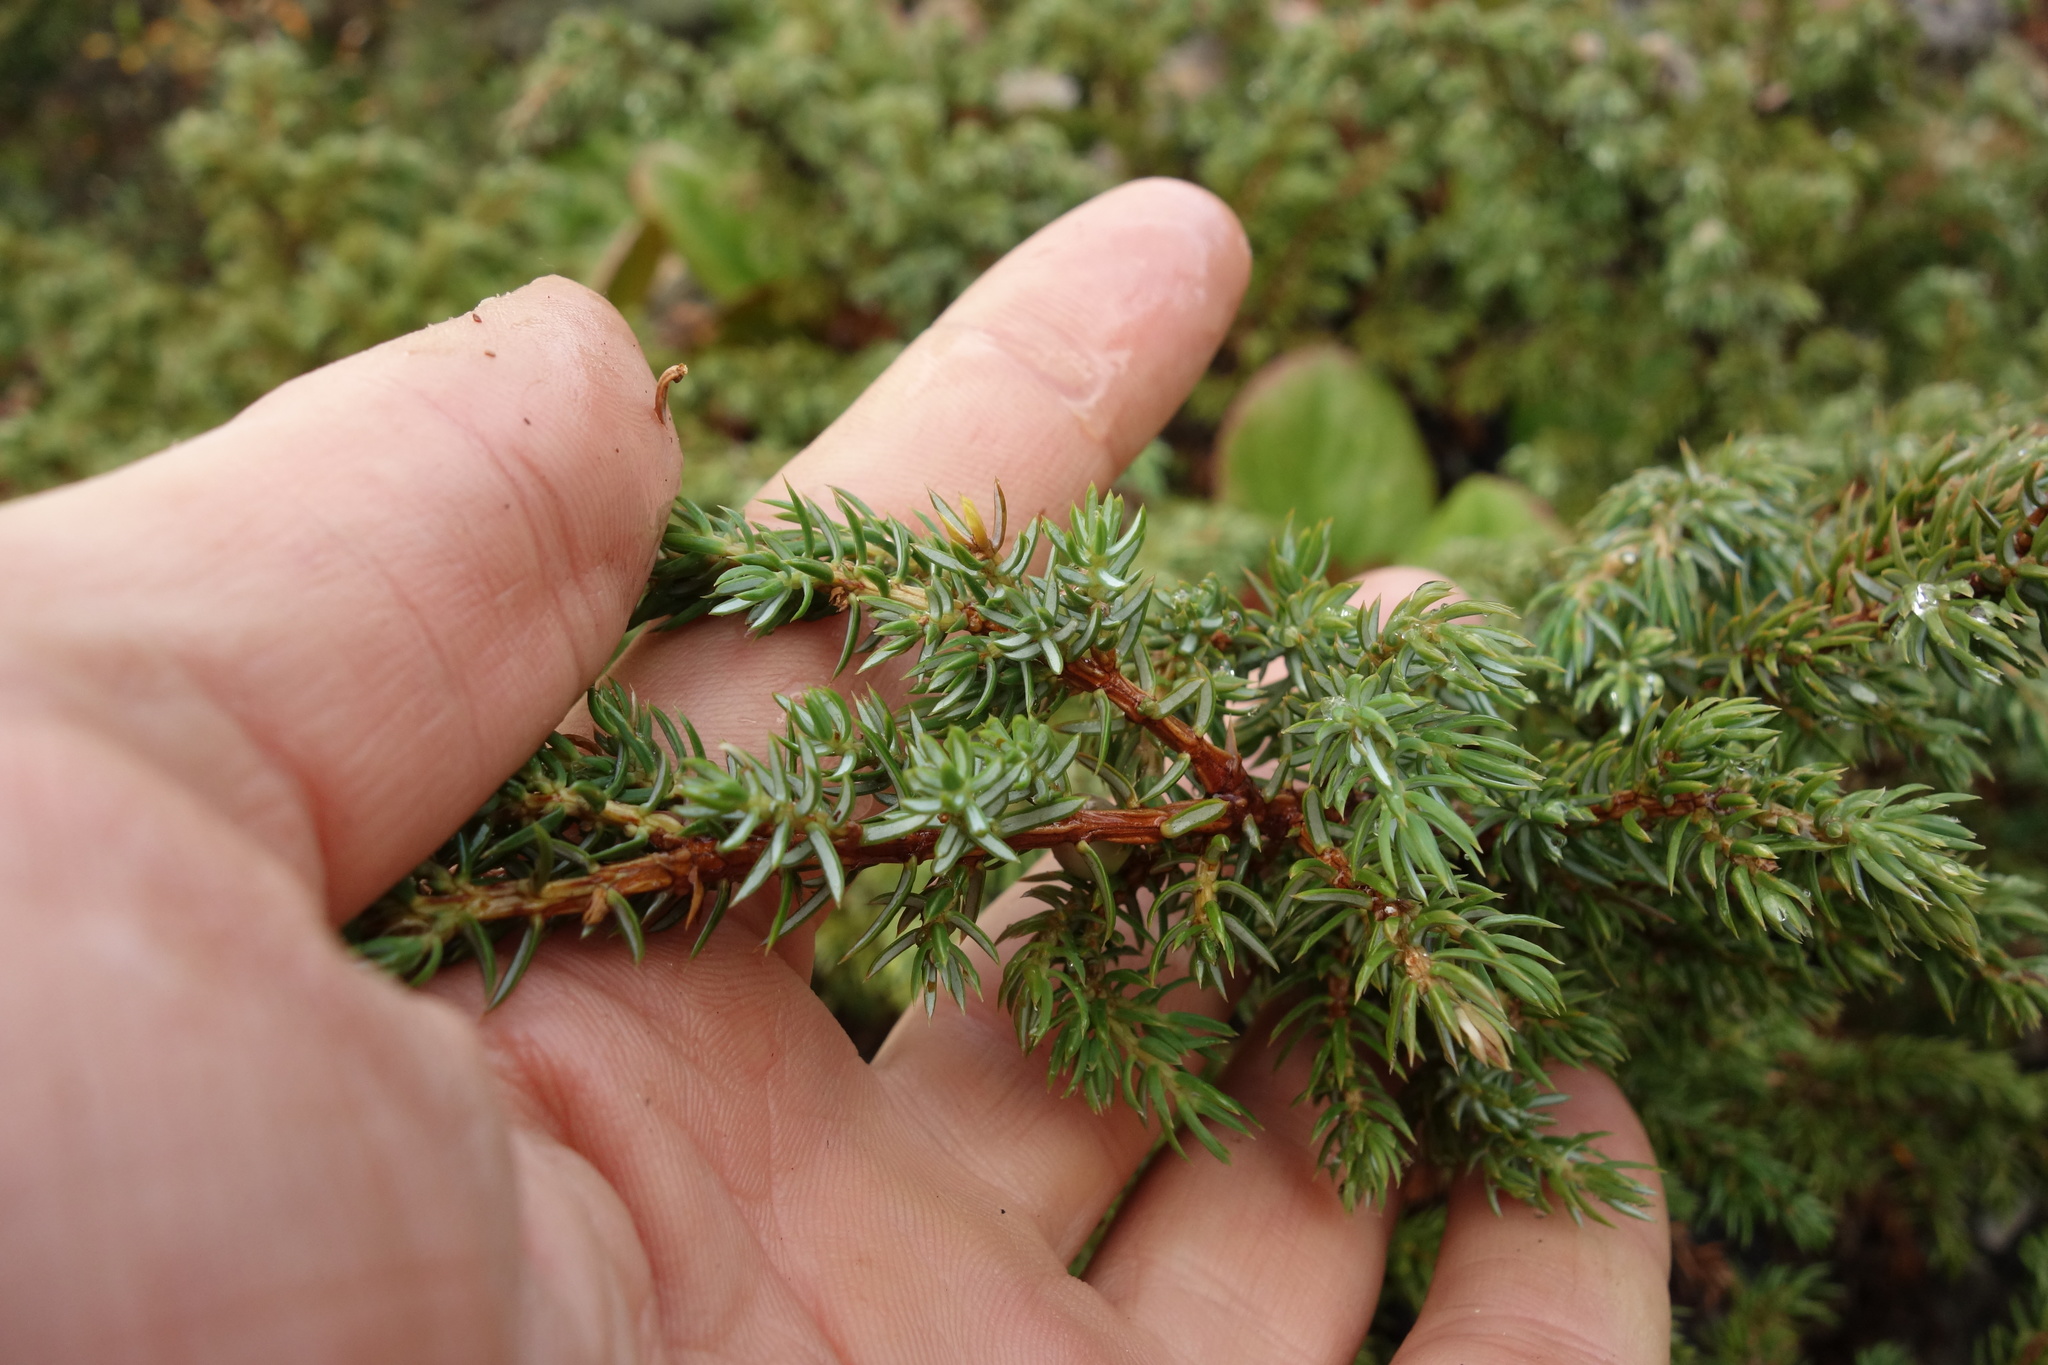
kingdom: Plantae
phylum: Tracheophyta
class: Pinopsida
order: Pinales
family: Cupressaceae
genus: Juniperus
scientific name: Juniperus communis
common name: Common juniper
